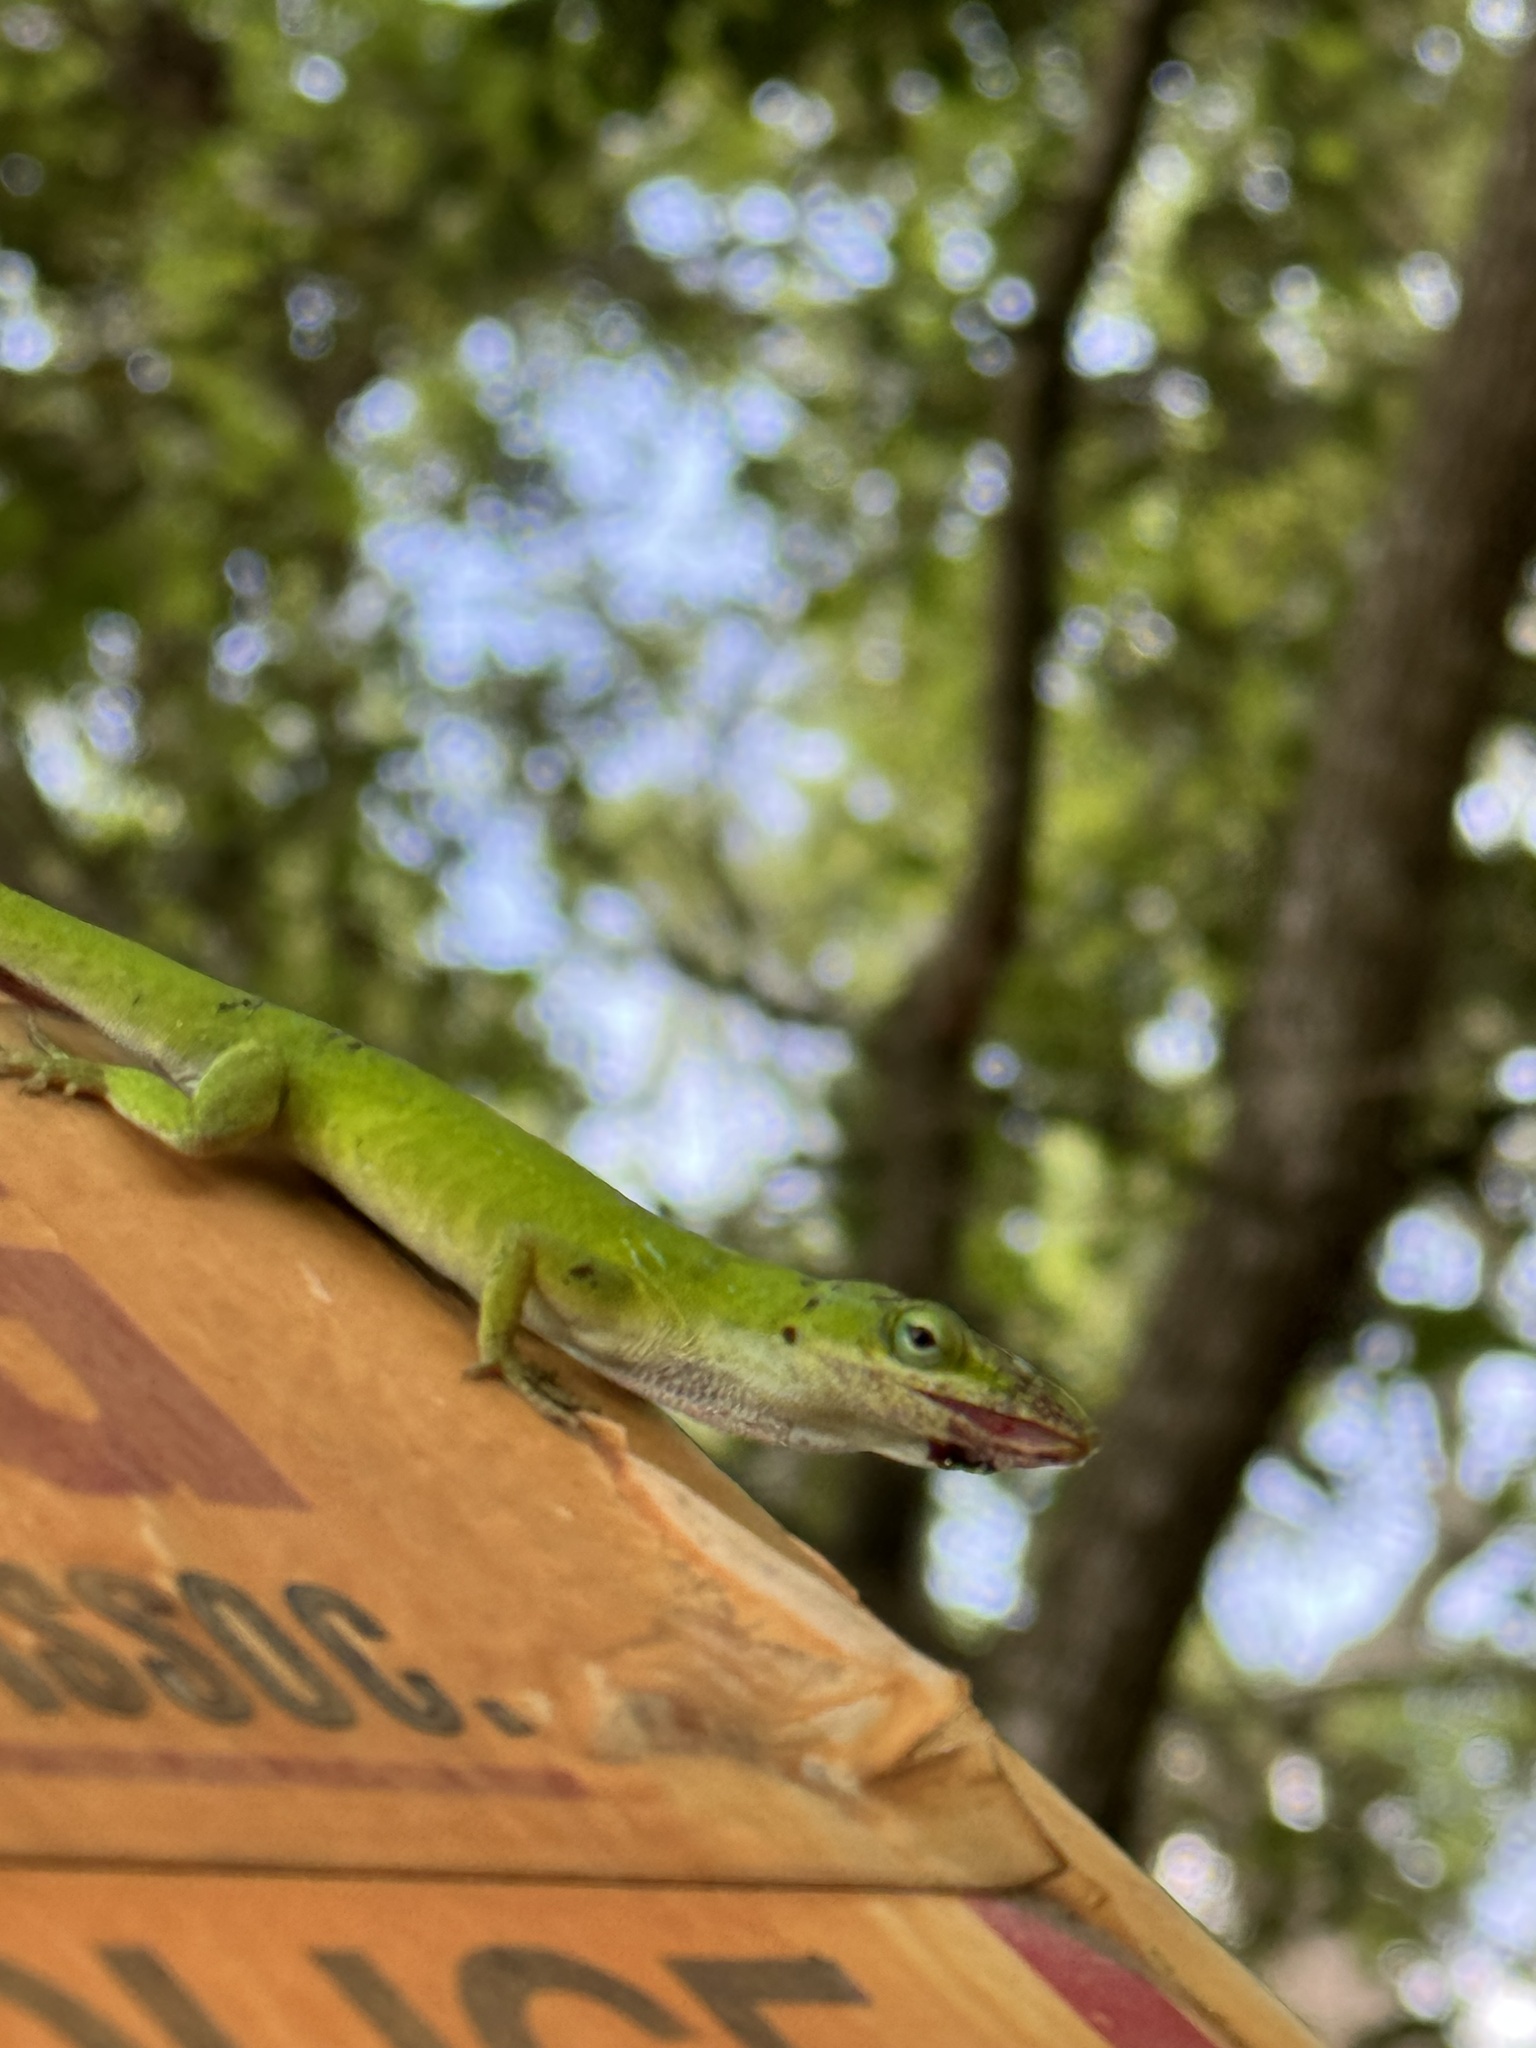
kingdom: Animalia
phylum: Chordata
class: Squamata
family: Dactyloidae
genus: Anolis
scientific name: Anolis carolinensis
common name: Green anole
